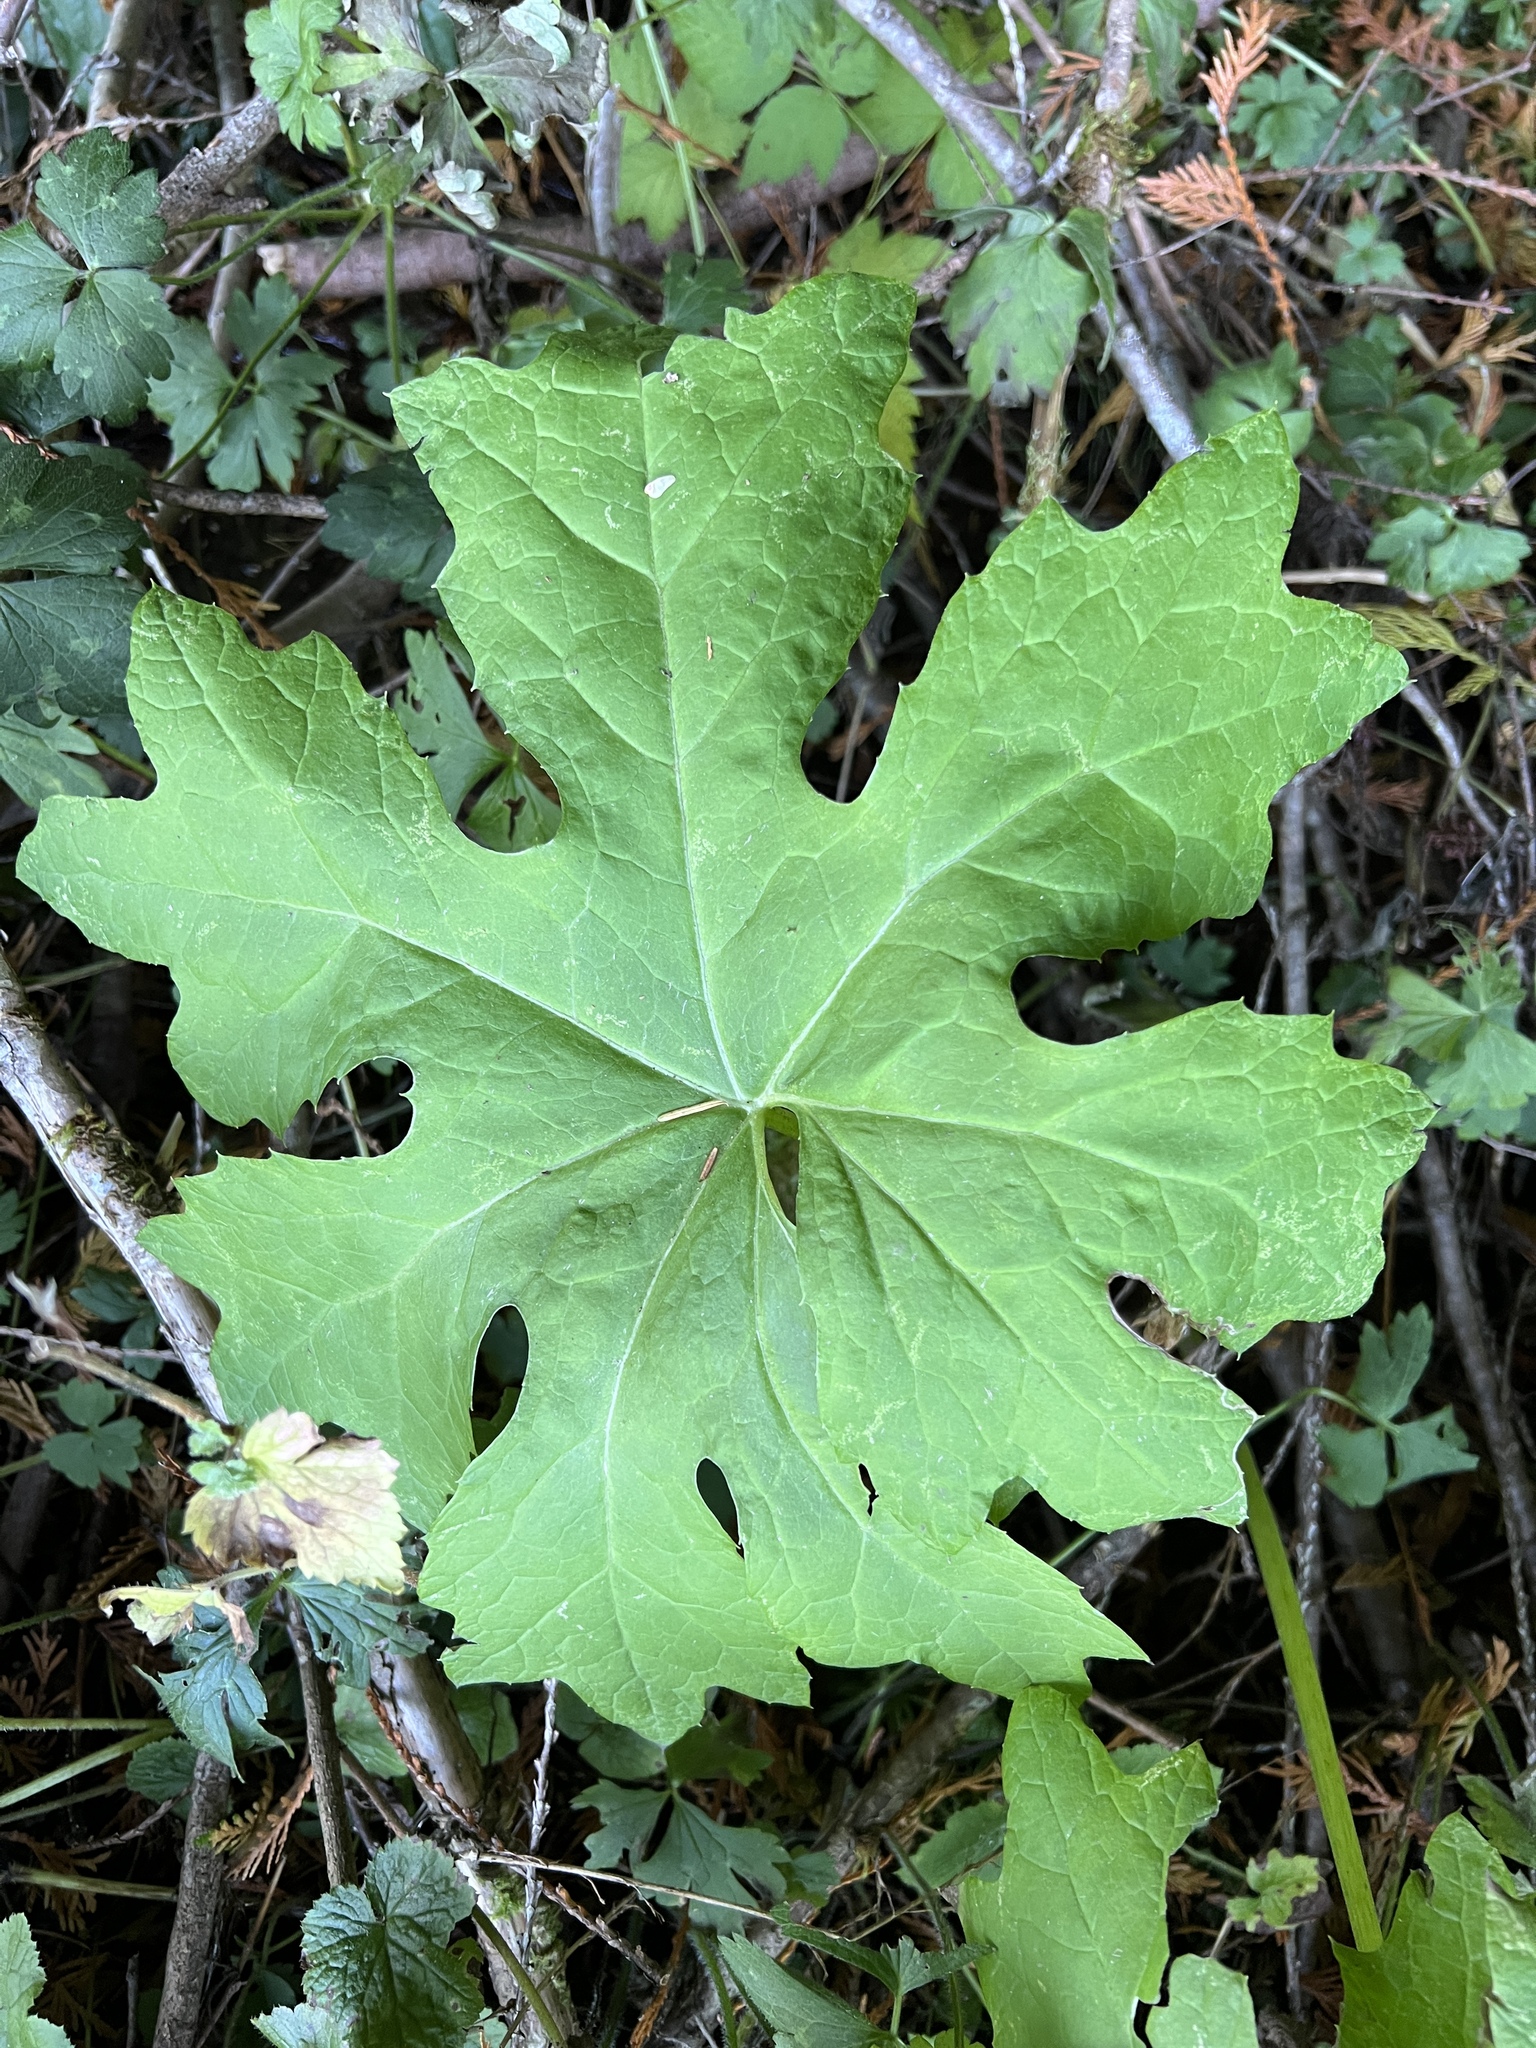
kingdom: Plantae
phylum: Tracheophyta
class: Magnoliopsida
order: Asterales
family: Asteraceae
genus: Petasites
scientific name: Petasites frigidus
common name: Arctic butterbur
